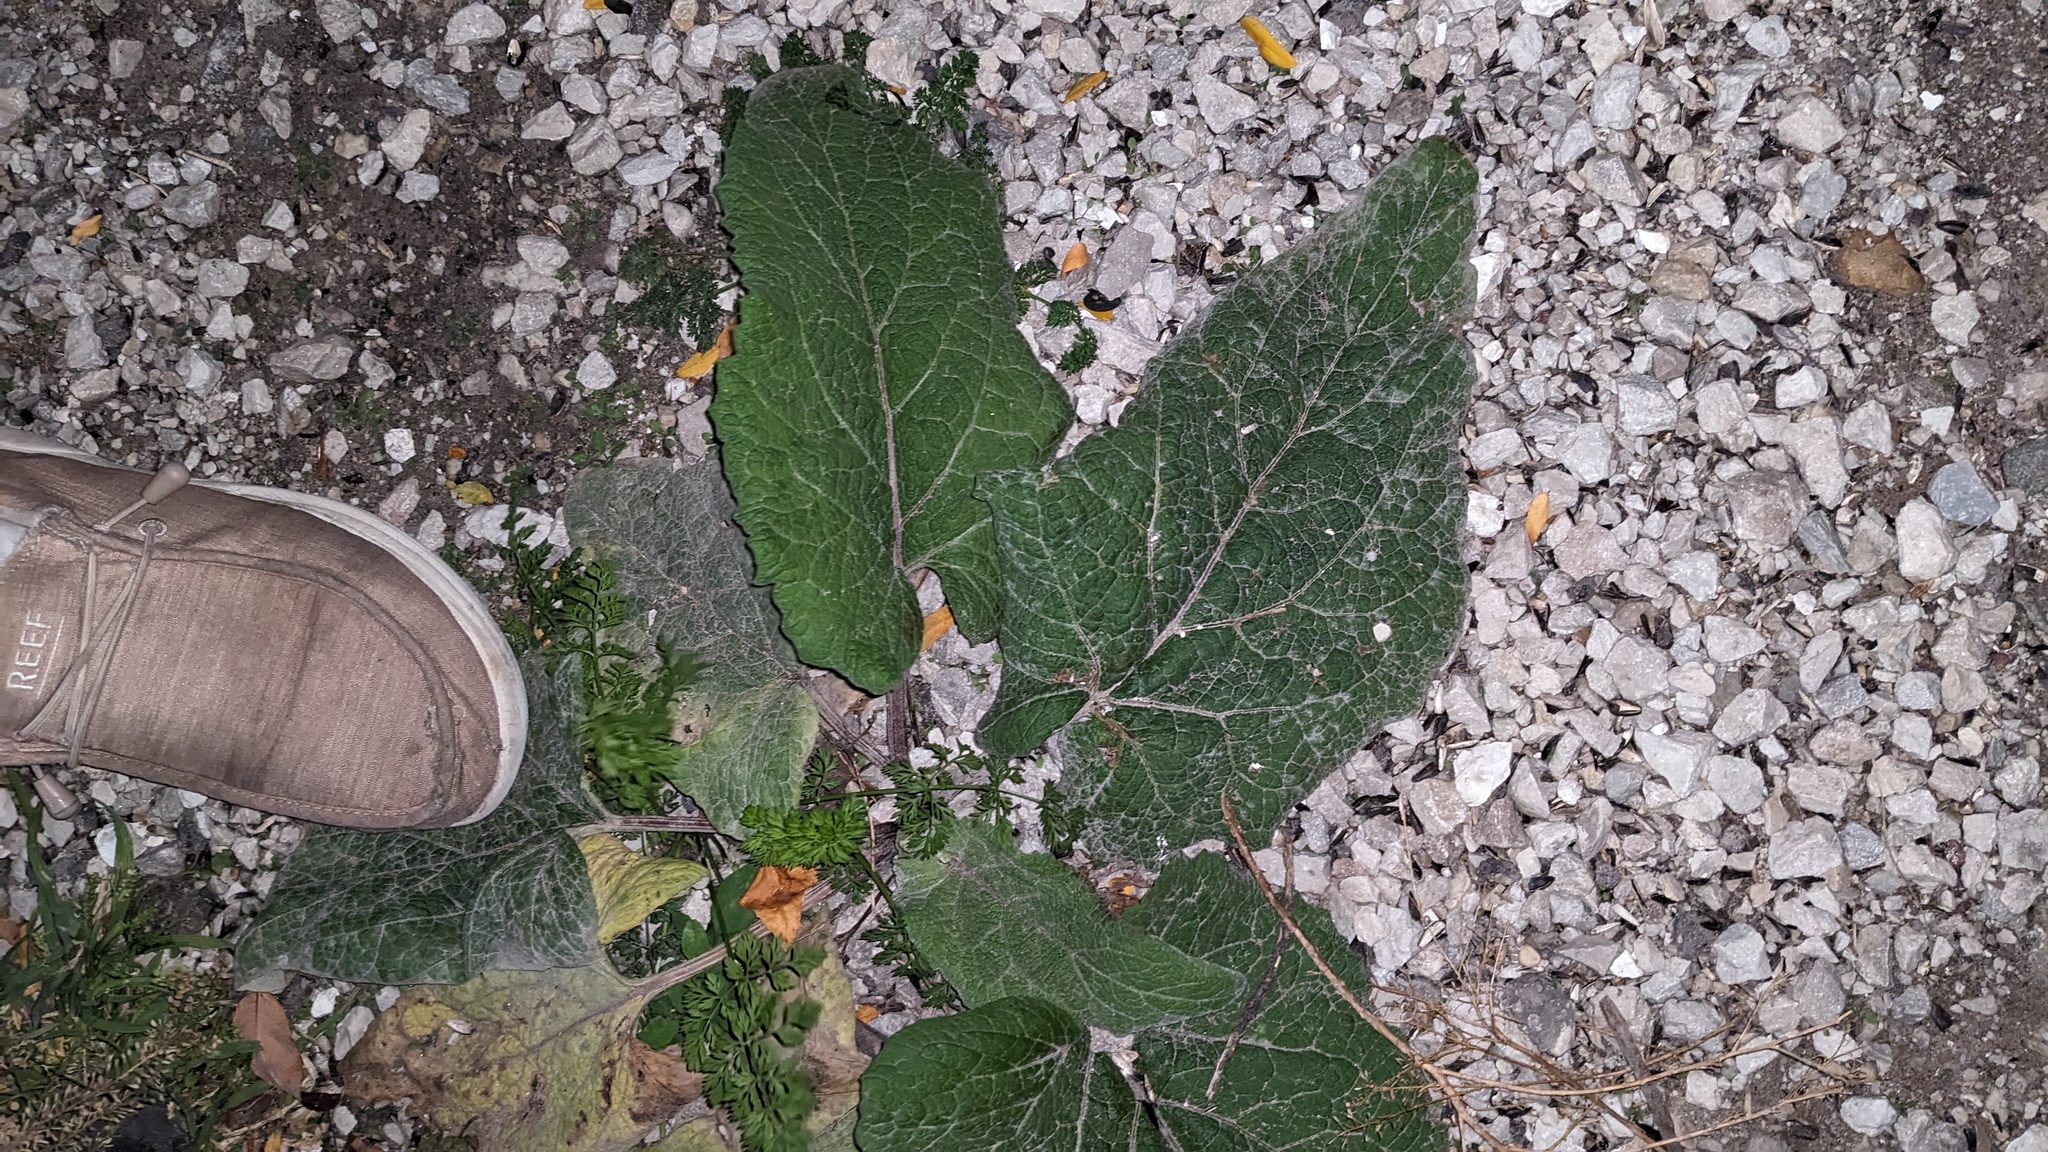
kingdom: Plantae
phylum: Tracheophyta
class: Magnoliopsida
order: Asterales
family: Asteraceae
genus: Arctium
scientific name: Arctium
